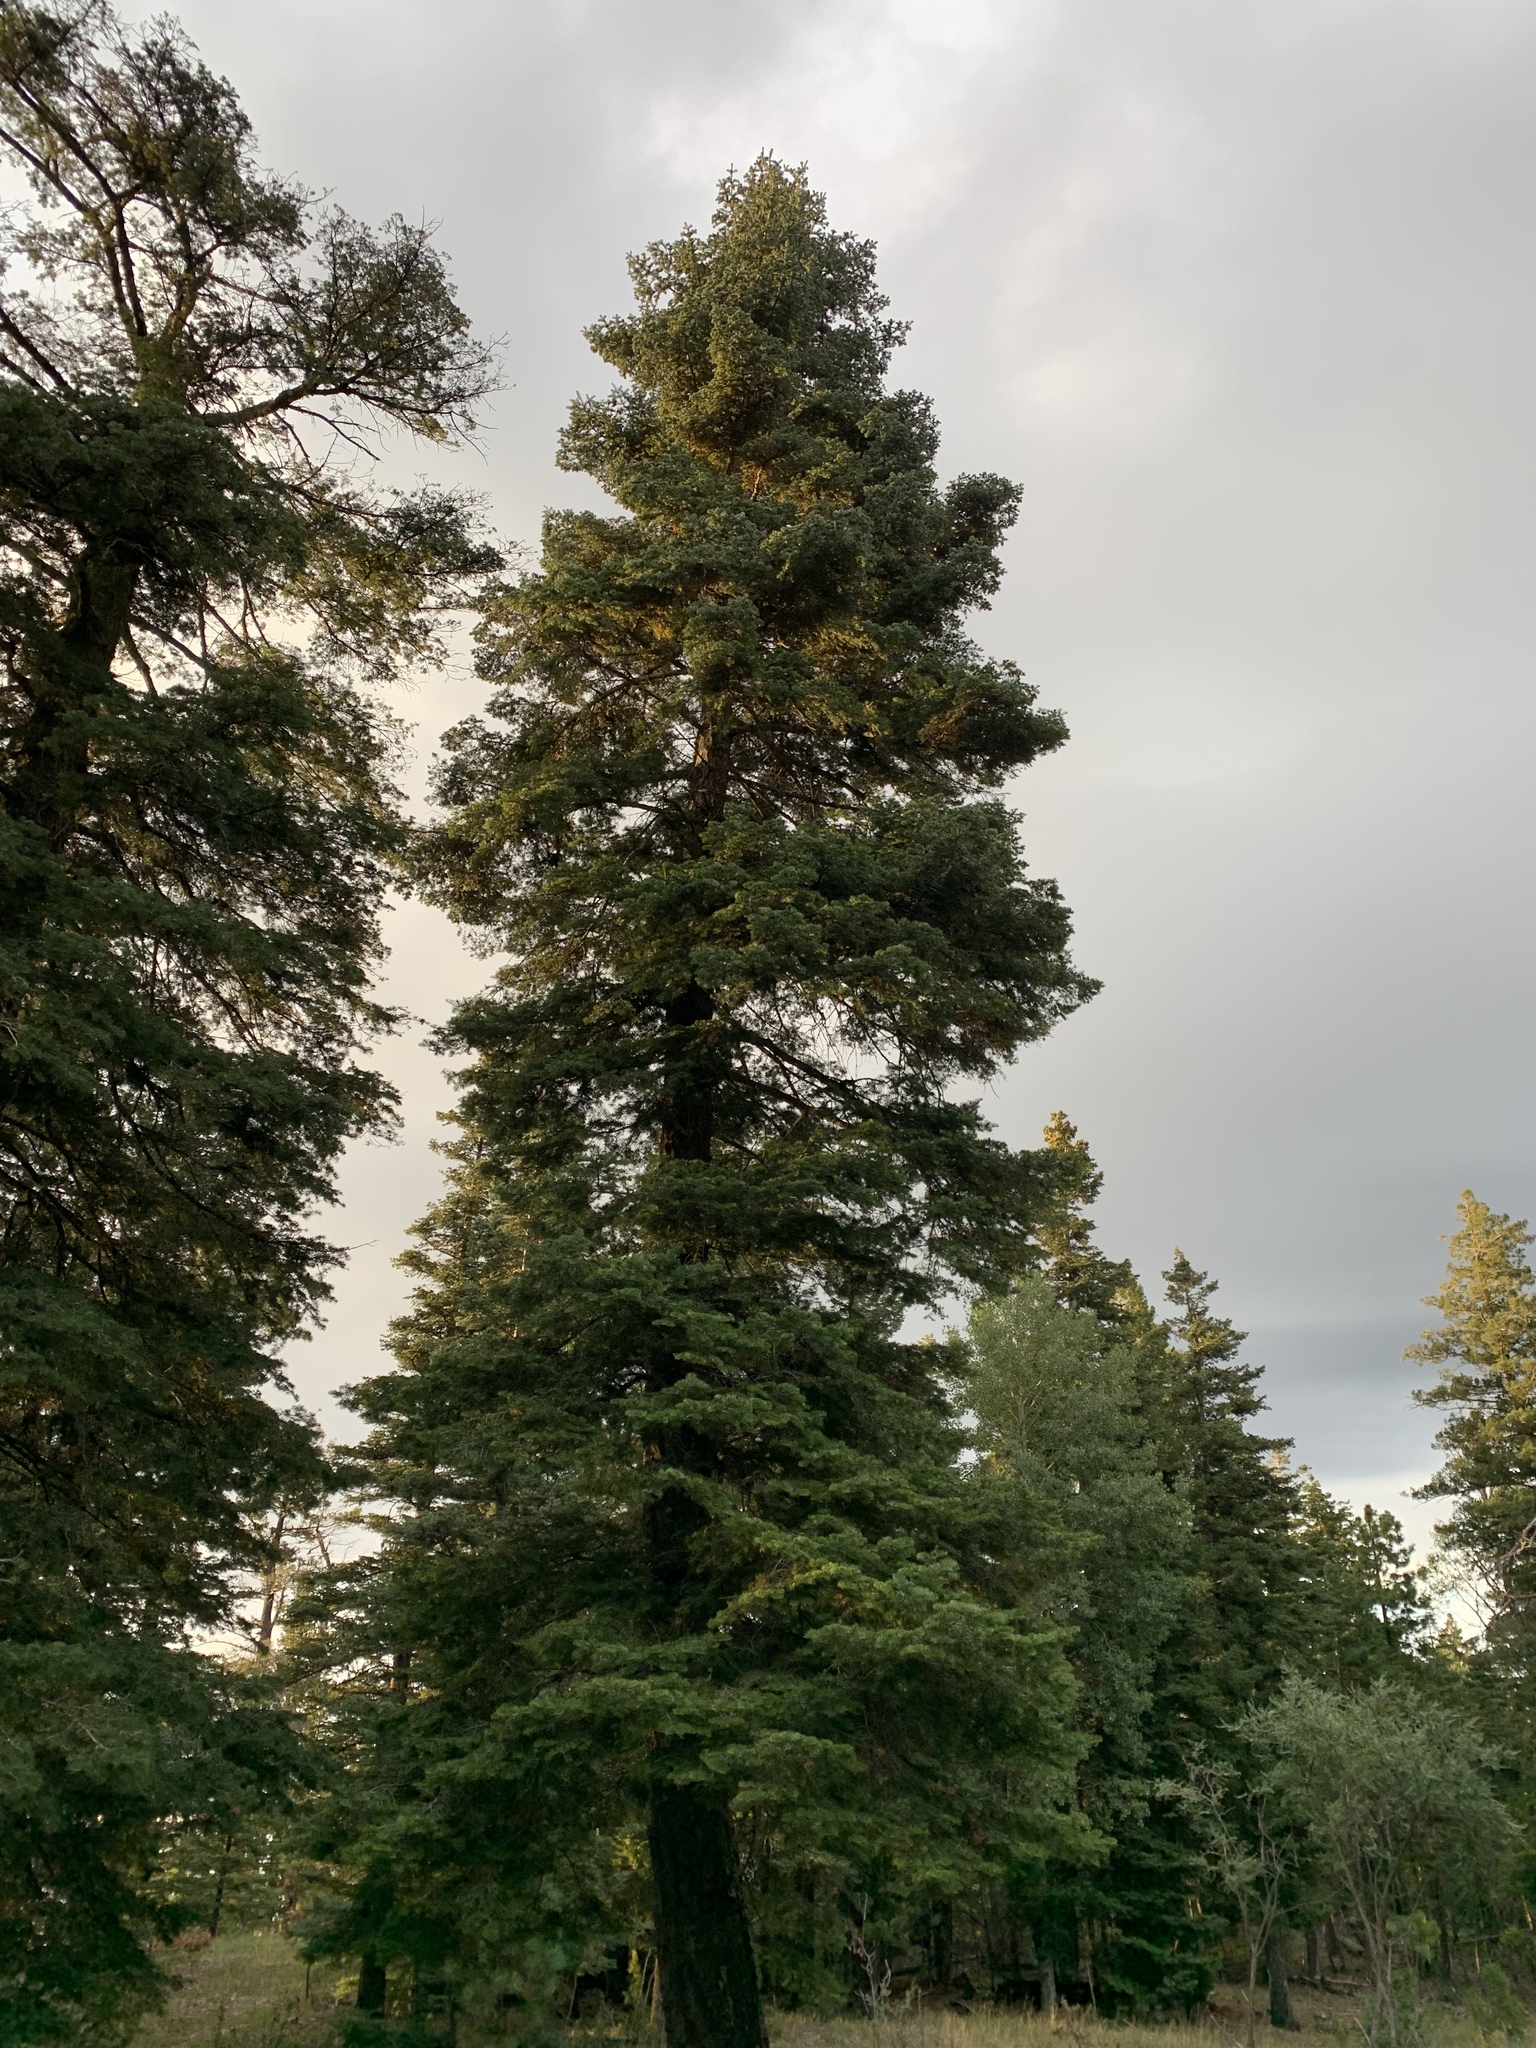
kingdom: Plantae
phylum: Tracheophyta
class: Pinopsida
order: Pinales
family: Pinaceae
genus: Abies
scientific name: Abies concolor
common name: Colorado fir
